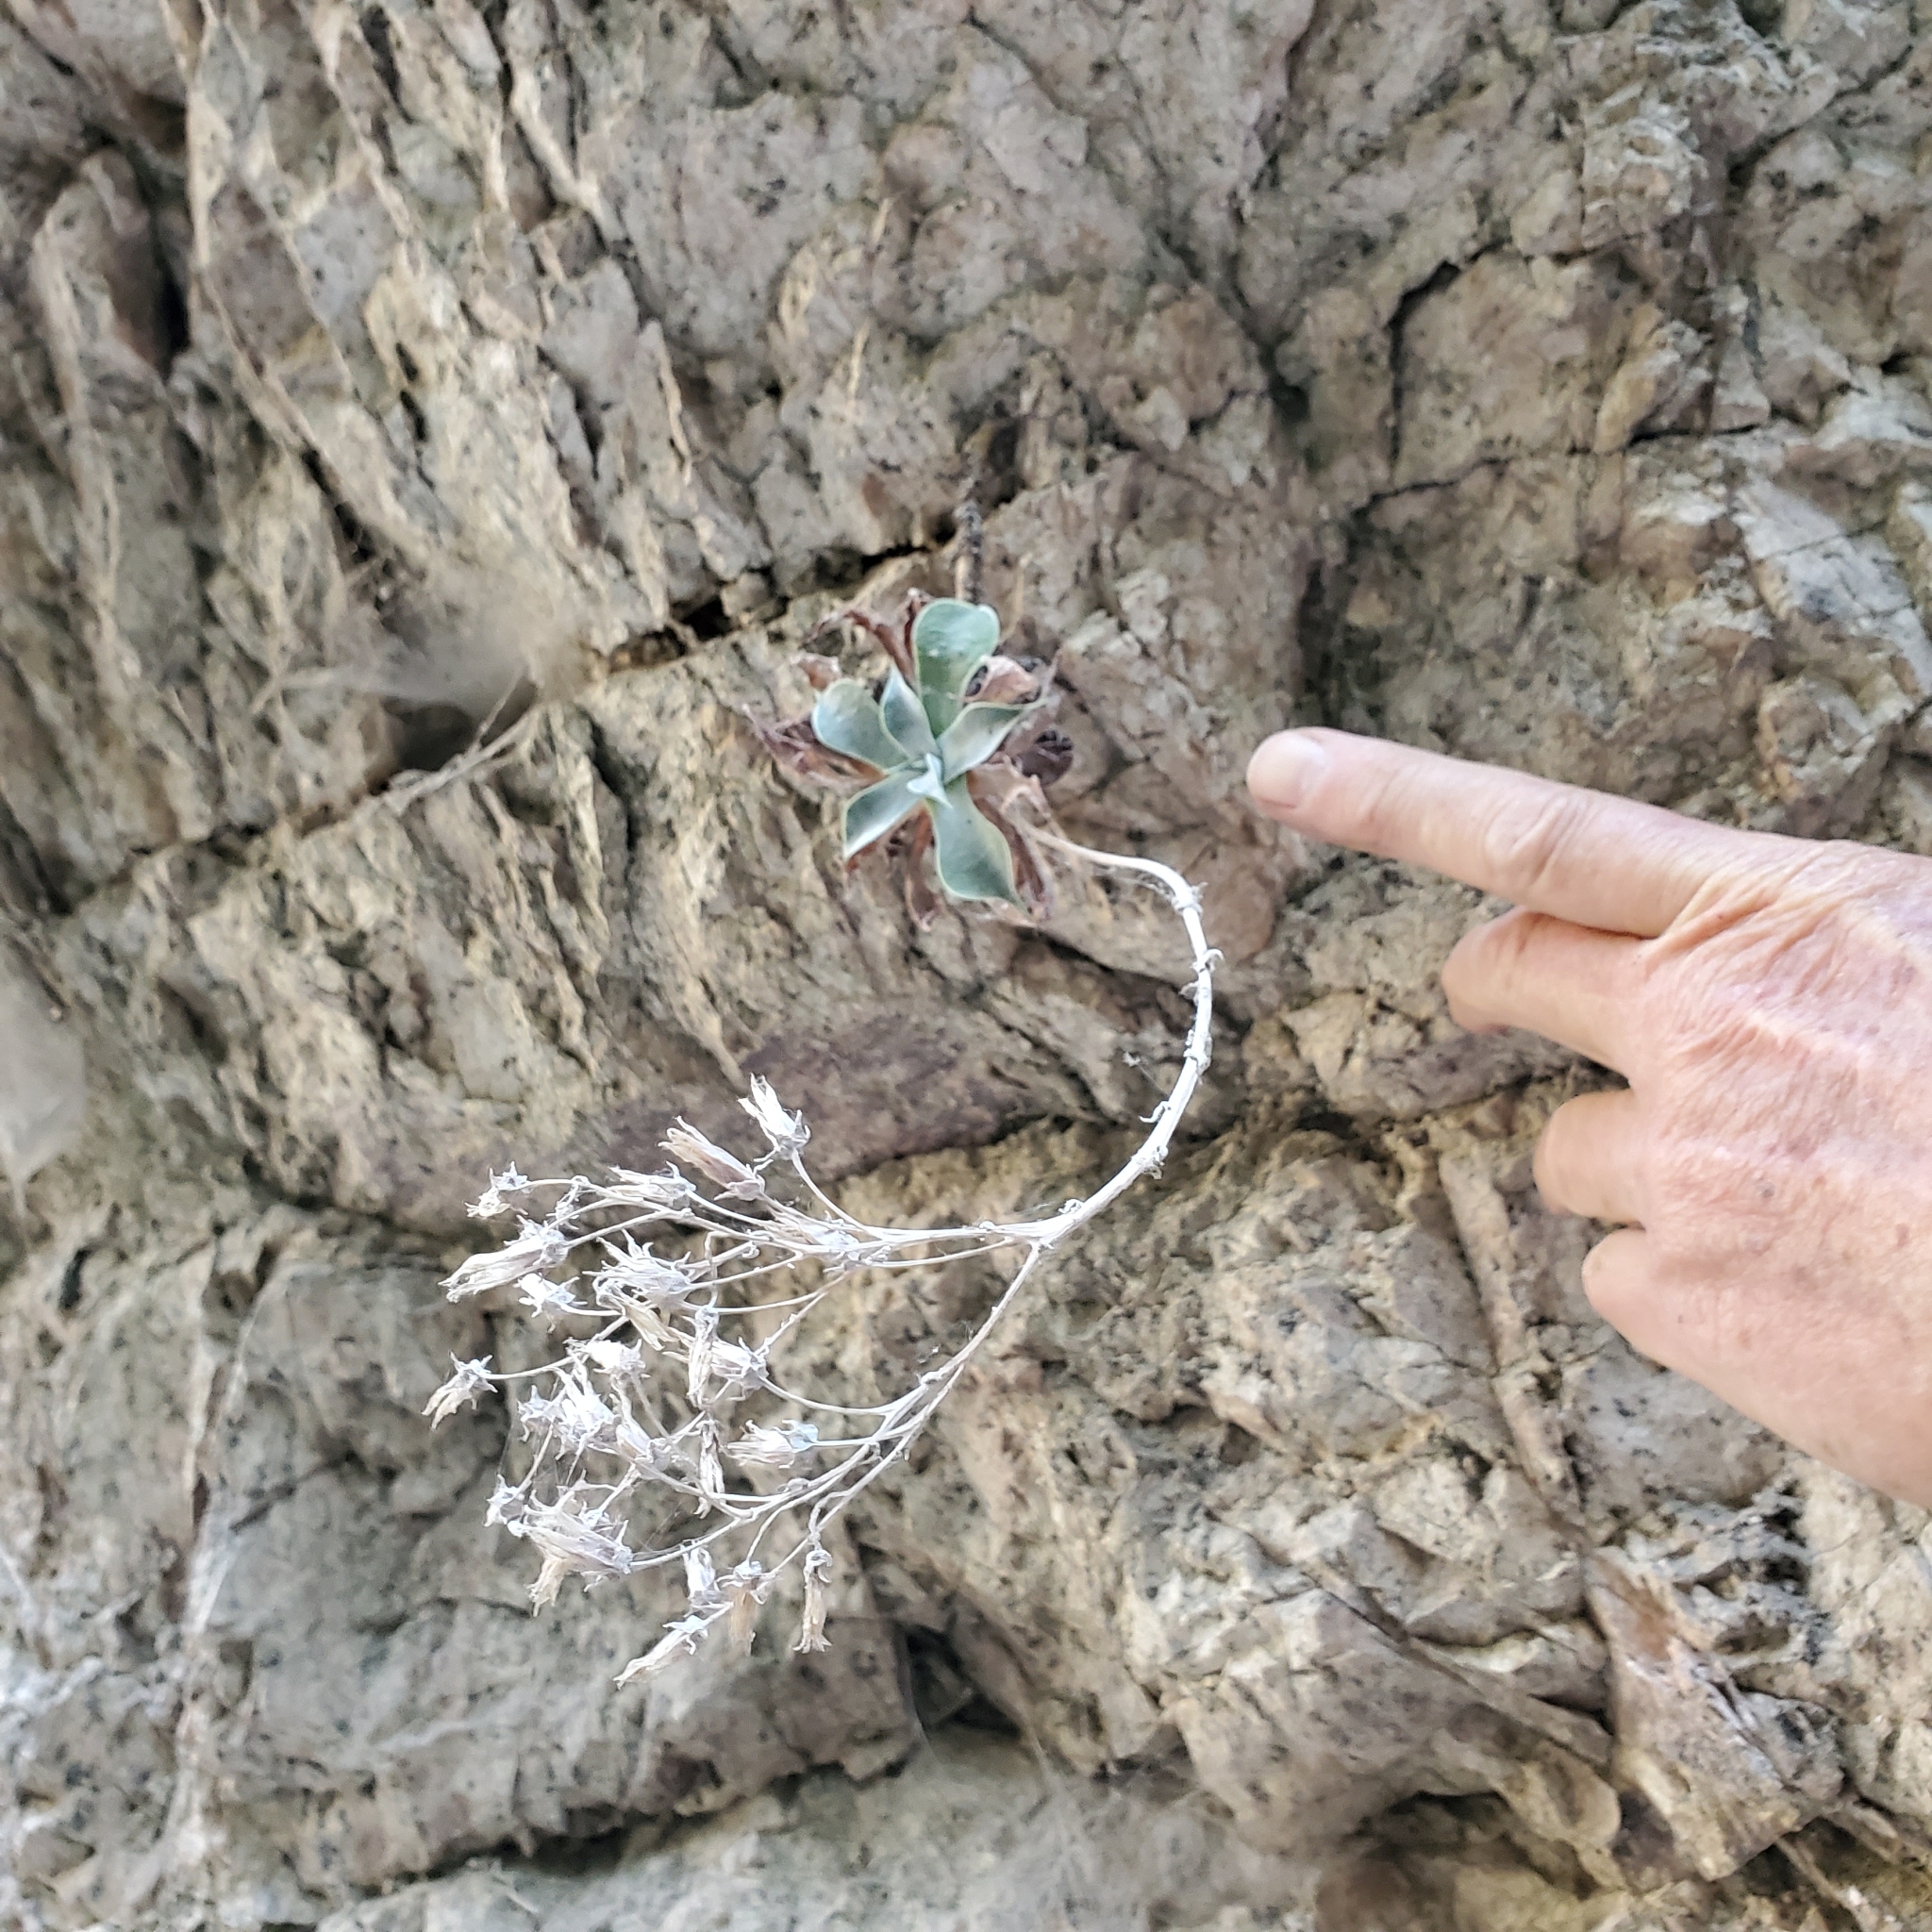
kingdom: Plantae
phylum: Tracheophyta
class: Magnoliopsida
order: Saxifragales
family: Crassulaceae
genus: Dudleya
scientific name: Dudleya cymosa
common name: Canyon dudleya
